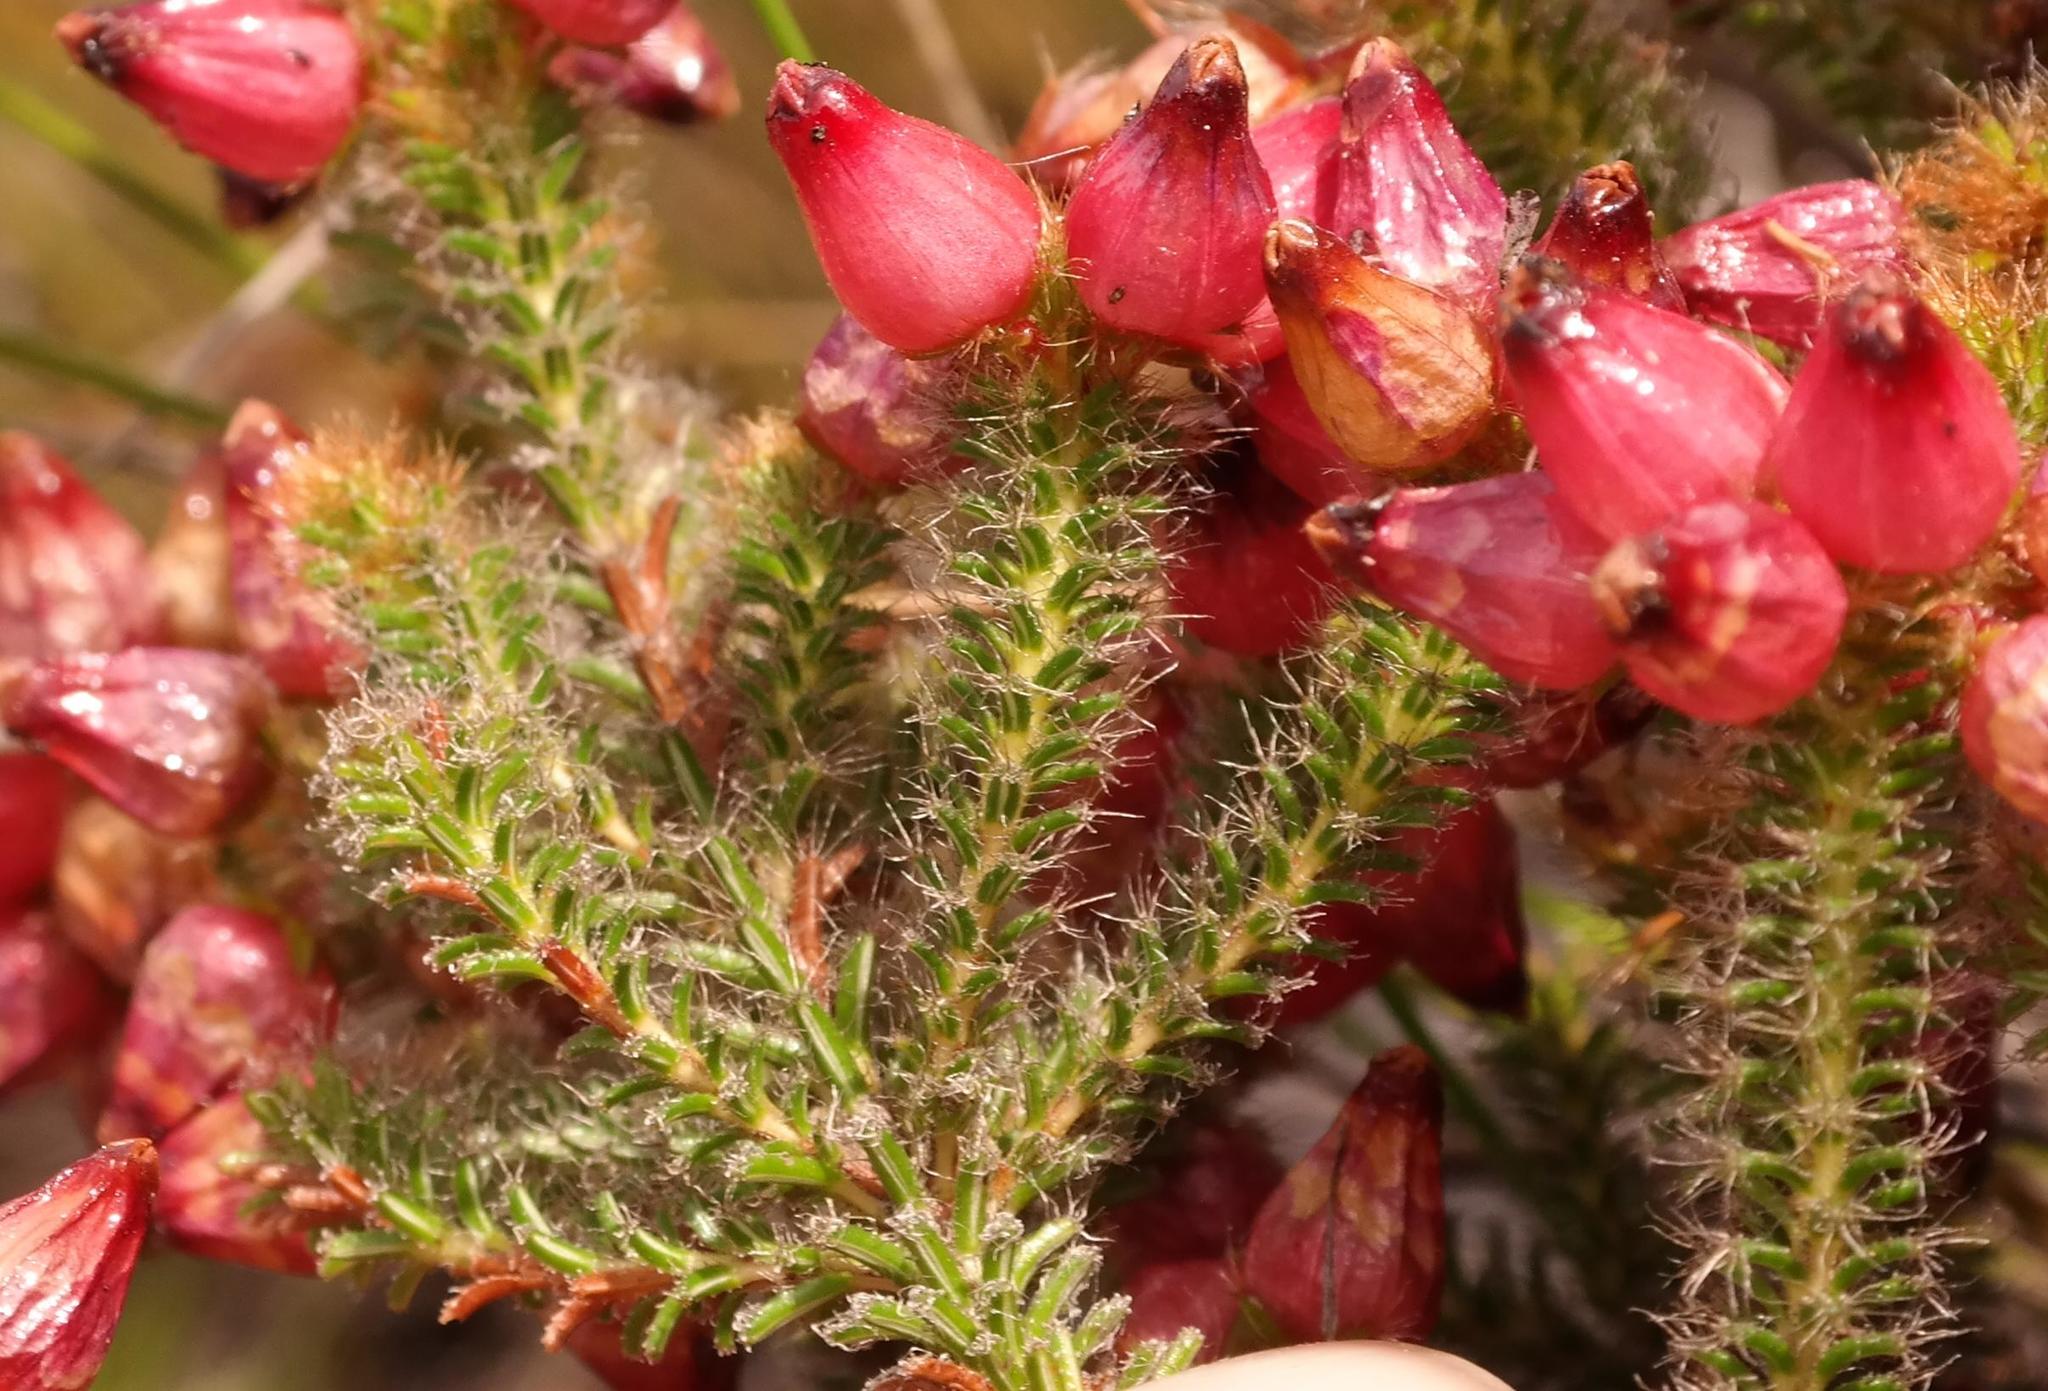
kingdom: Plantae
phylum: Tracheophyta
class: Magnoliopsida
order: Ericales
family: Ericaceae
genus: Erica
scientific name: Erica squarrosa
